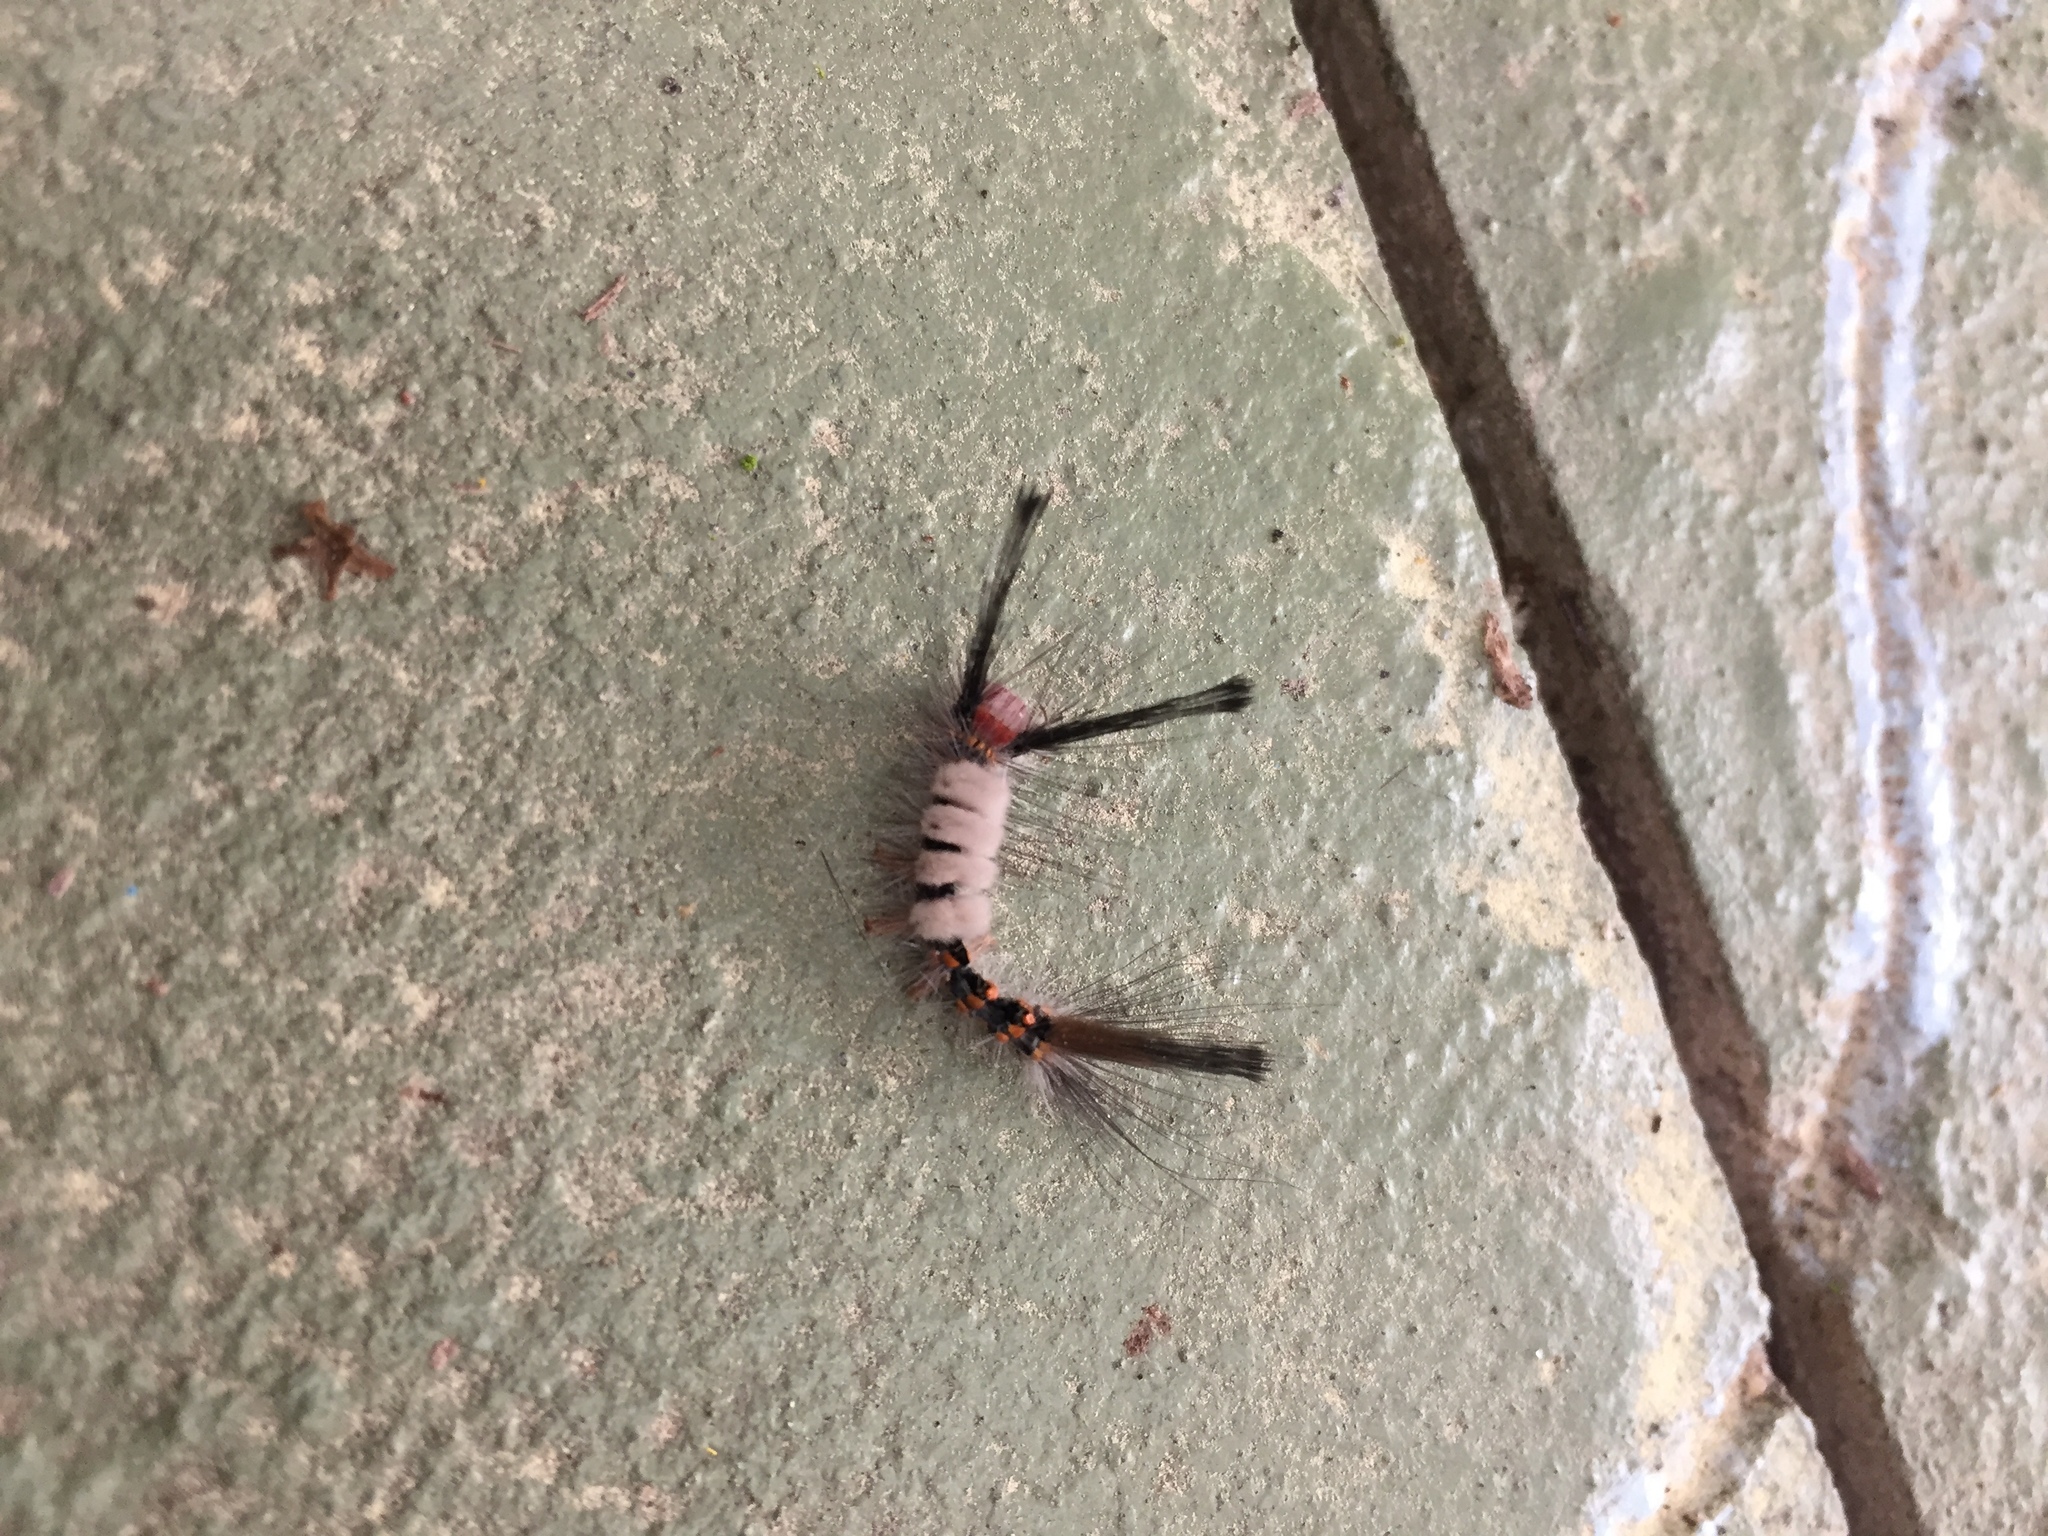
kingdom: Animalia
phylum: Arthropoda
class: Insecta
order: Lepidoptera
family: Erebidae
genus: Orgyia
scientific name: Orgyia detrita
